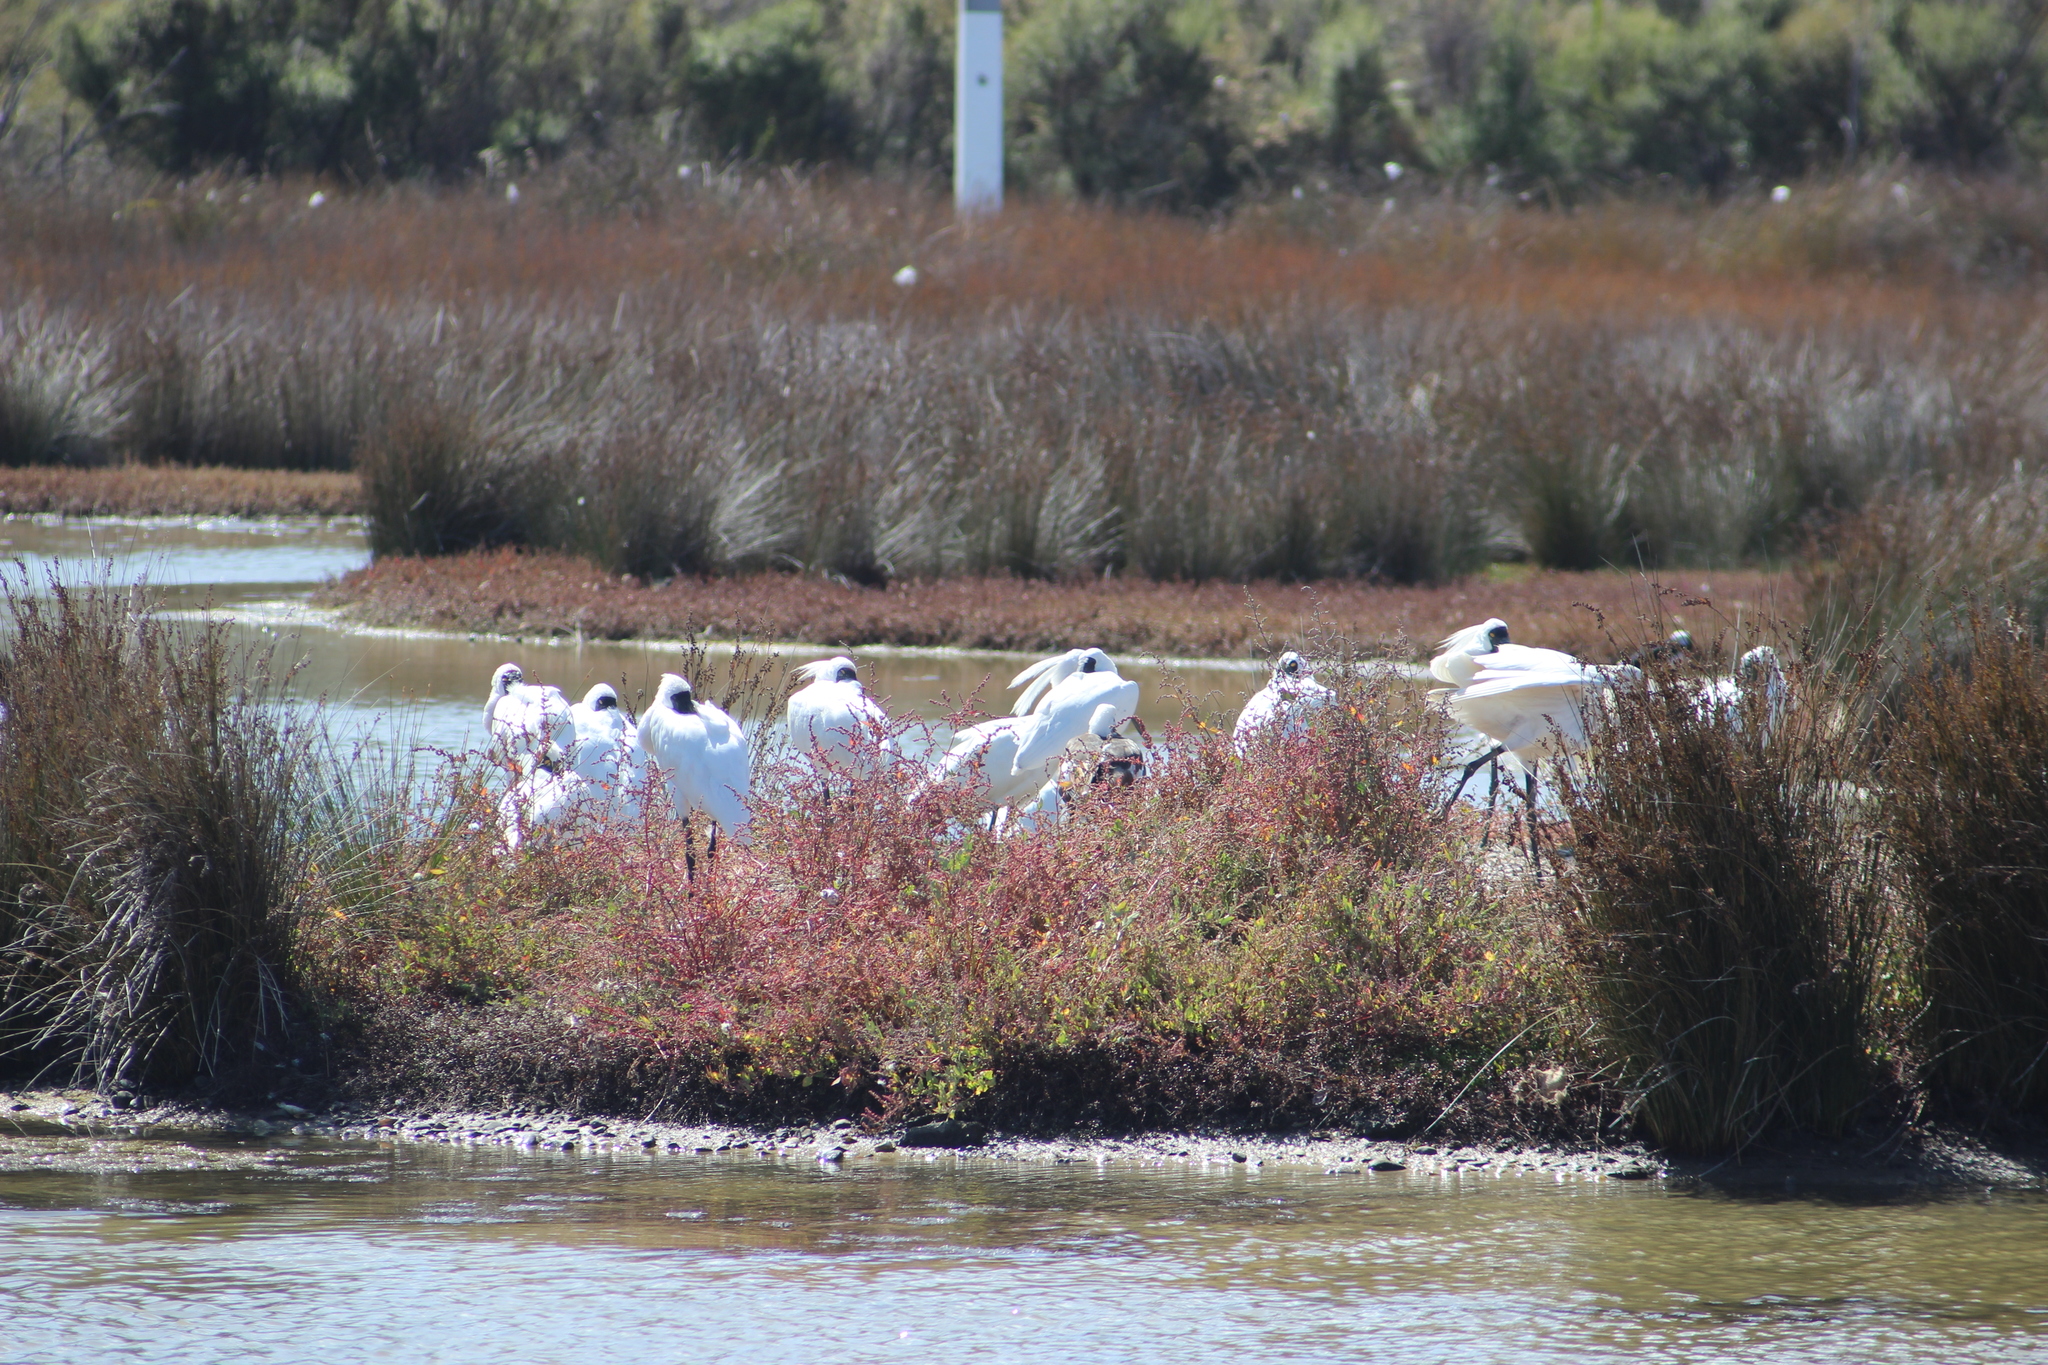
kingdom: Animalia
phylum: Chordata
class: Aves
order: Pelecaniformes
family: Threskiornithidae
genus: Platalea
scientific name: Platalea regia
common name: Royal spoonbill
